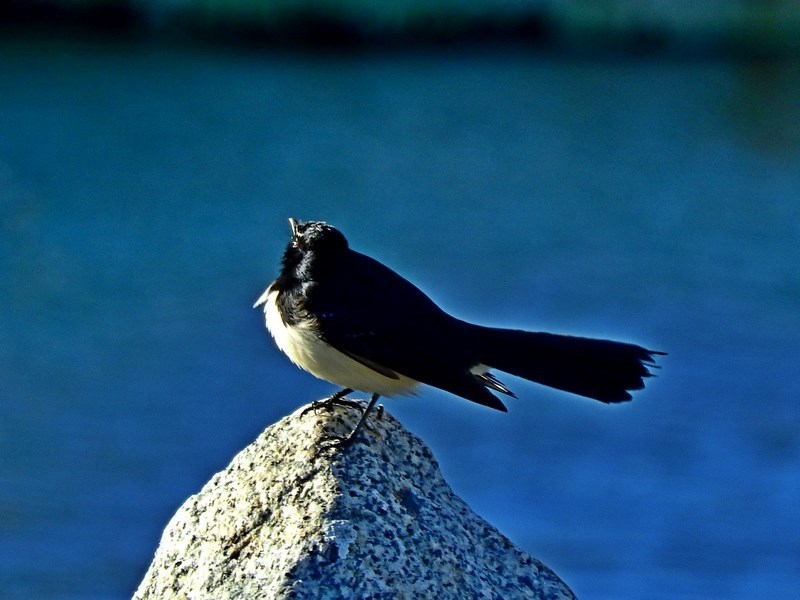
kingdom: Animalia
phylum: Chordata
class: Aves
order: Passeriformes
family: Rhipiduridae
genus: Rhipidura
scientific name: Rhipidura leucophrys
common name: Willie wagtail
